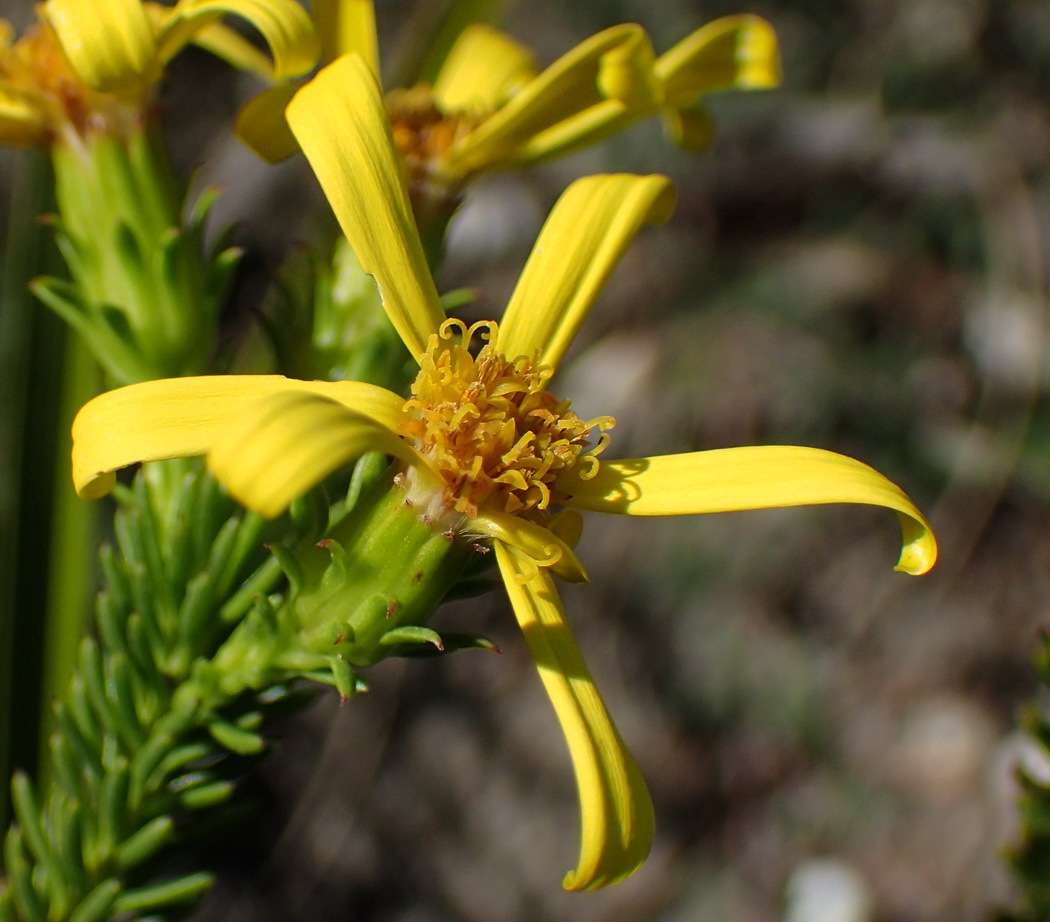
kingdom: Plantae
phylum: Tracheophyta
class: Magnoliopsida
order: Asterales
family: Asteraceae
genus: Senecio
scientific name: Senecio pinifolius
